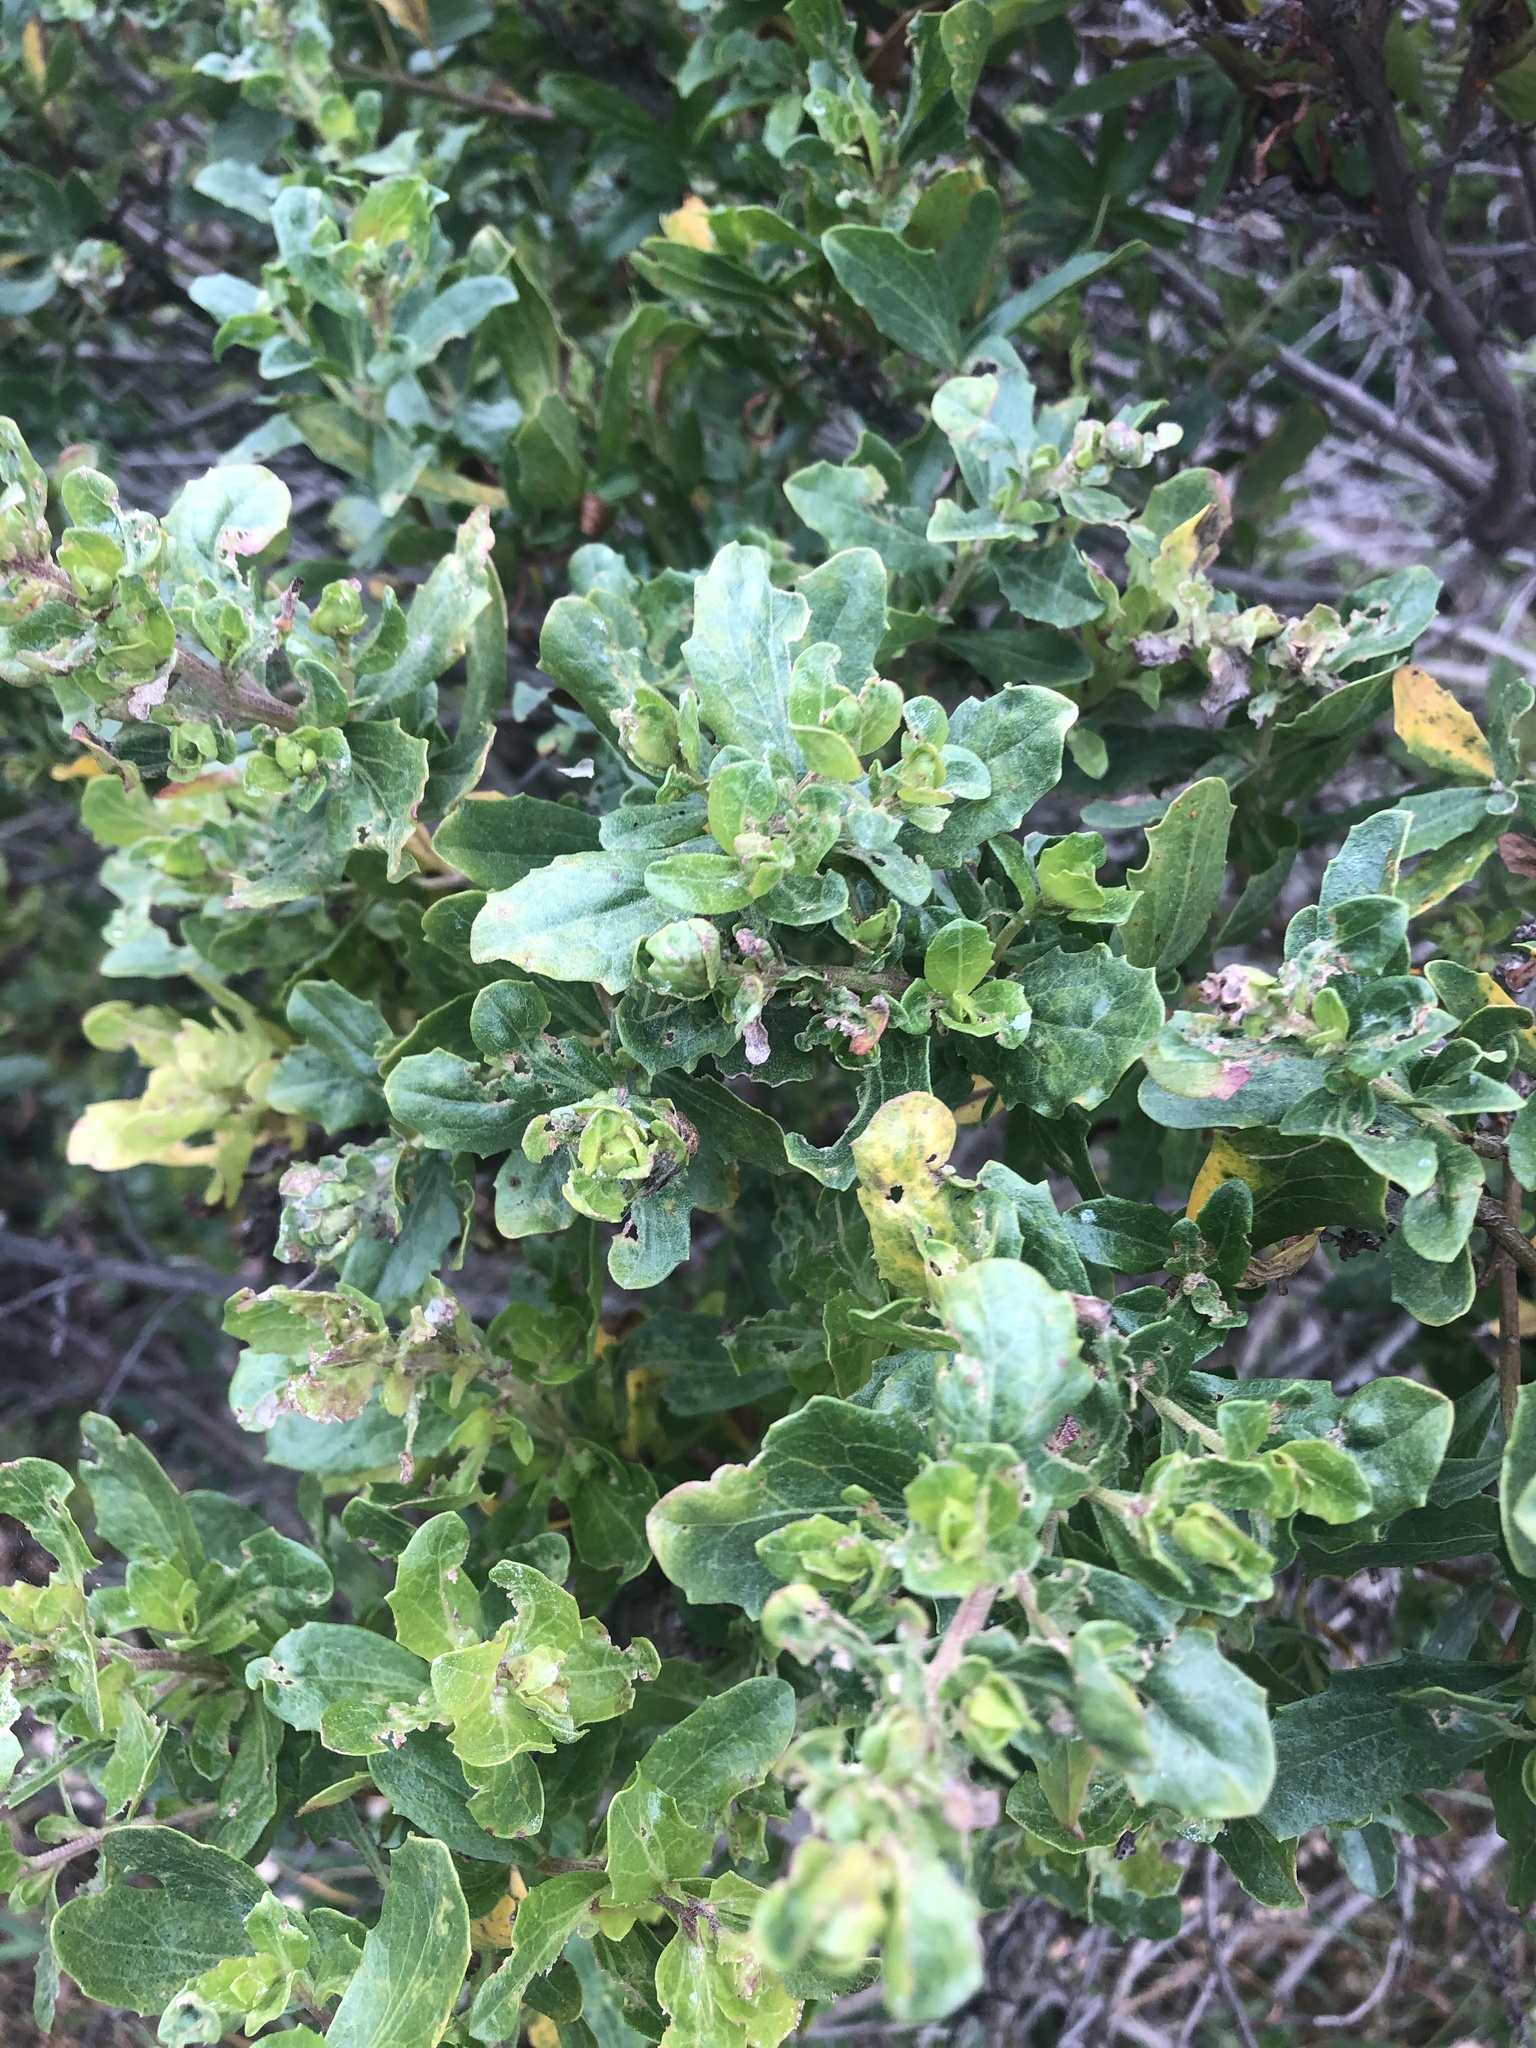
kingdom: Plantae
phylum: Tracheophyta
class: Magnoliopsida
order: Asterales
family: Asteraceae
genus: Baccharis
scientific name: Baccharis pilularis
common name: Coyotebrush
